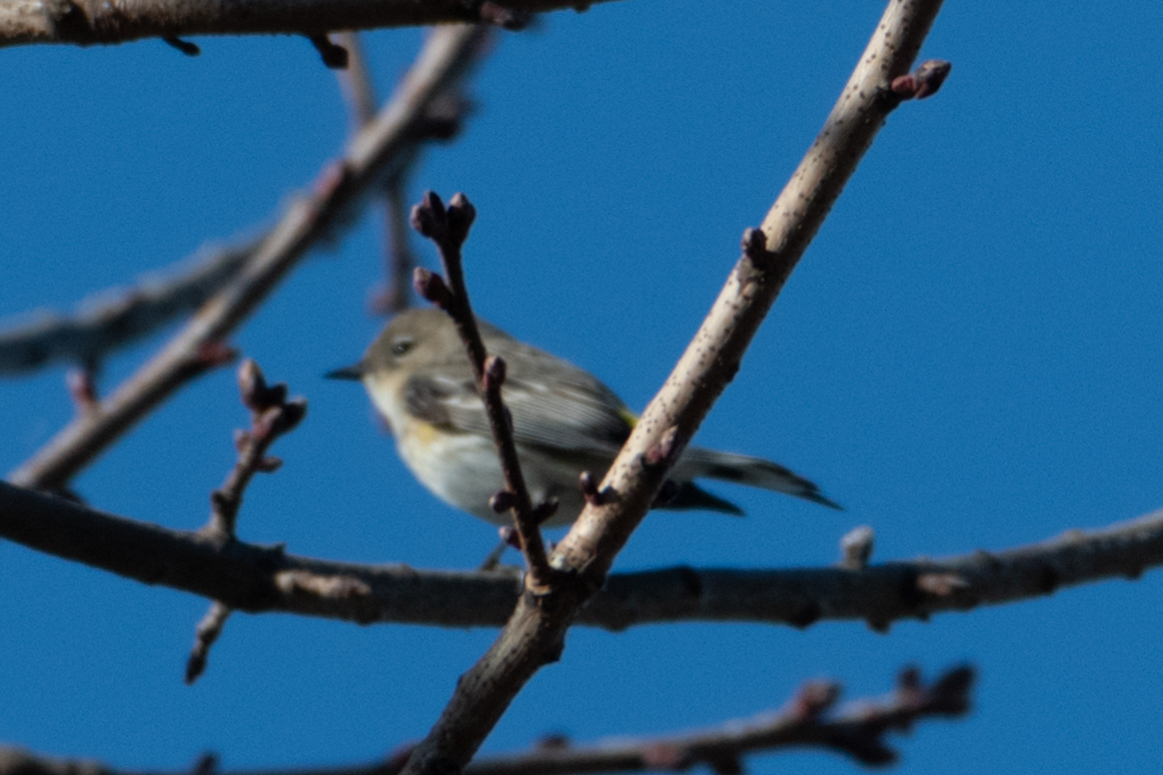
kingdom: Animalia
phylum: Chordata
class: Aves
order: Passeriformes
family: Parulidae
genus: Setophaga
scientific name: Setophaga coronata
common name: Myrtle warbler
